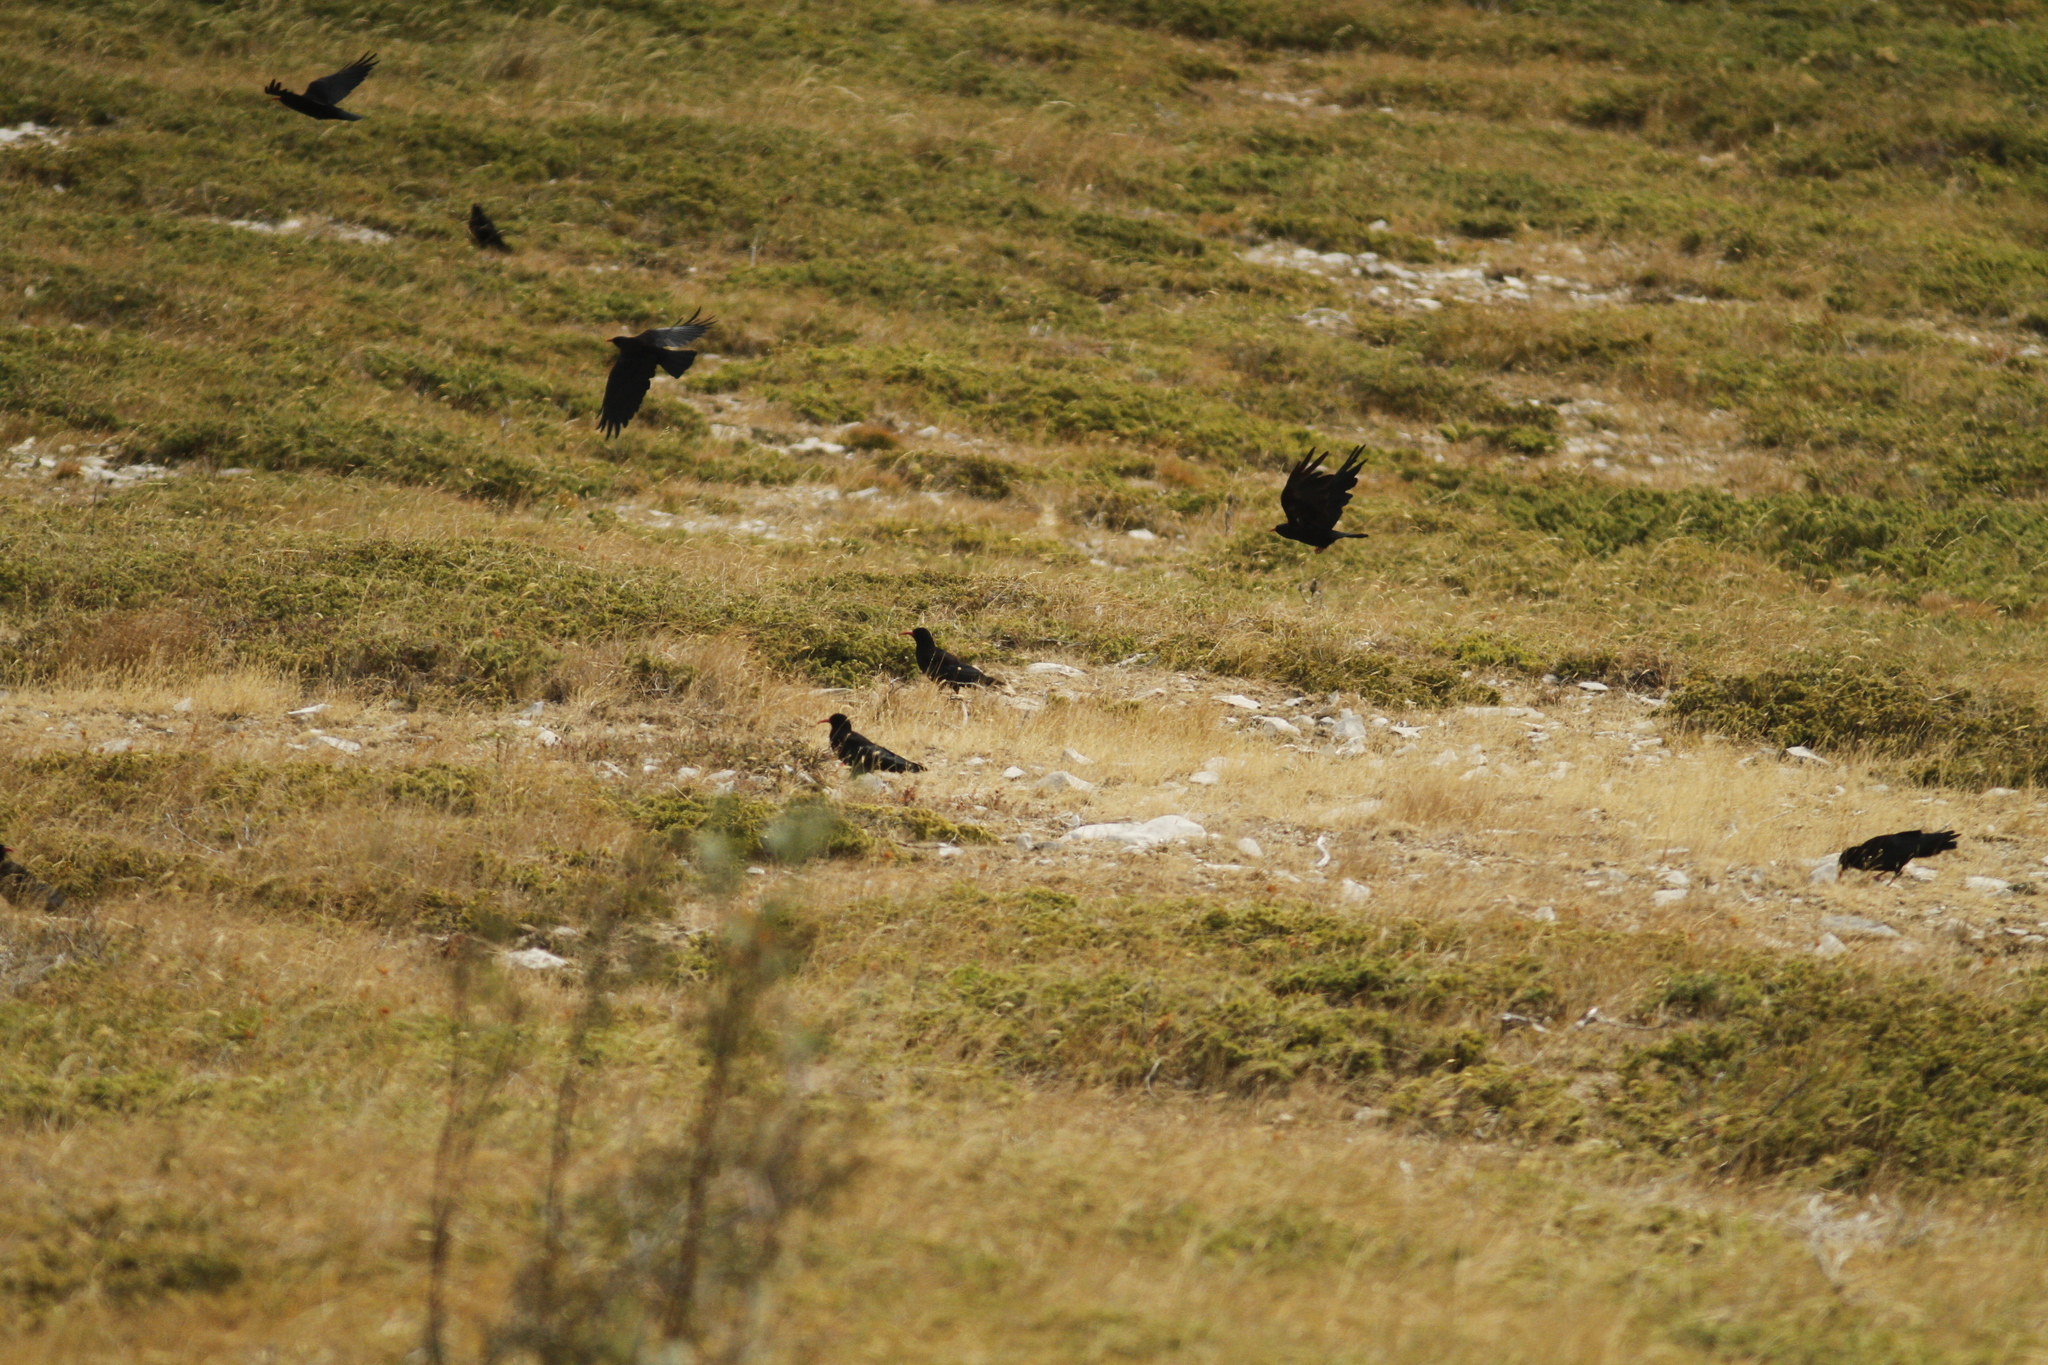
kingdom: Animalia
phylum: Chordata
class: Aves
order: Passeriformes
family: Corvidae
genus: Pyrrhocorax
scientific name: Pyrrhocorax pyrrhocorax
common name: Red-billed chough
